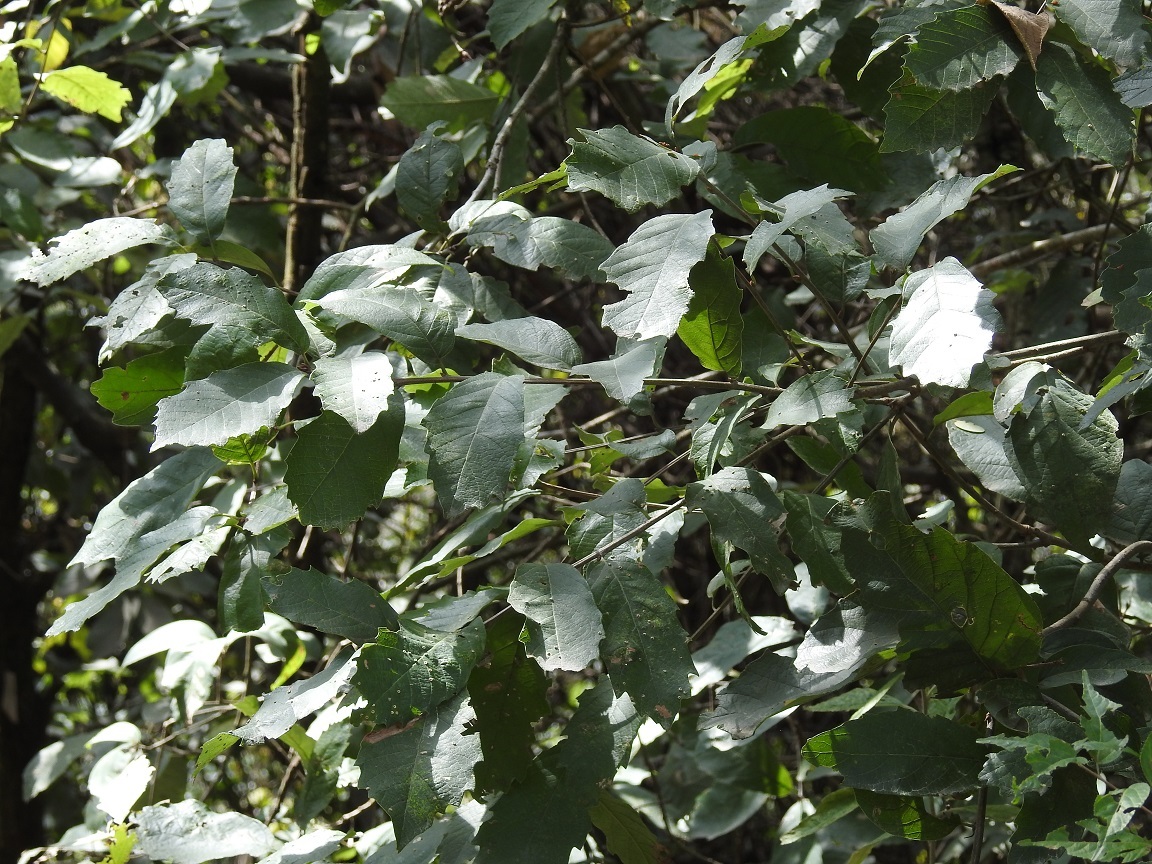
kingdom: Plantae
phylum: Tracheophyta
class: Magnoliopsida
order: Fagales
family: Fagaceae
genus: Quercus
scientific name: Quercus polymorpha
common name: Mexican white oak
